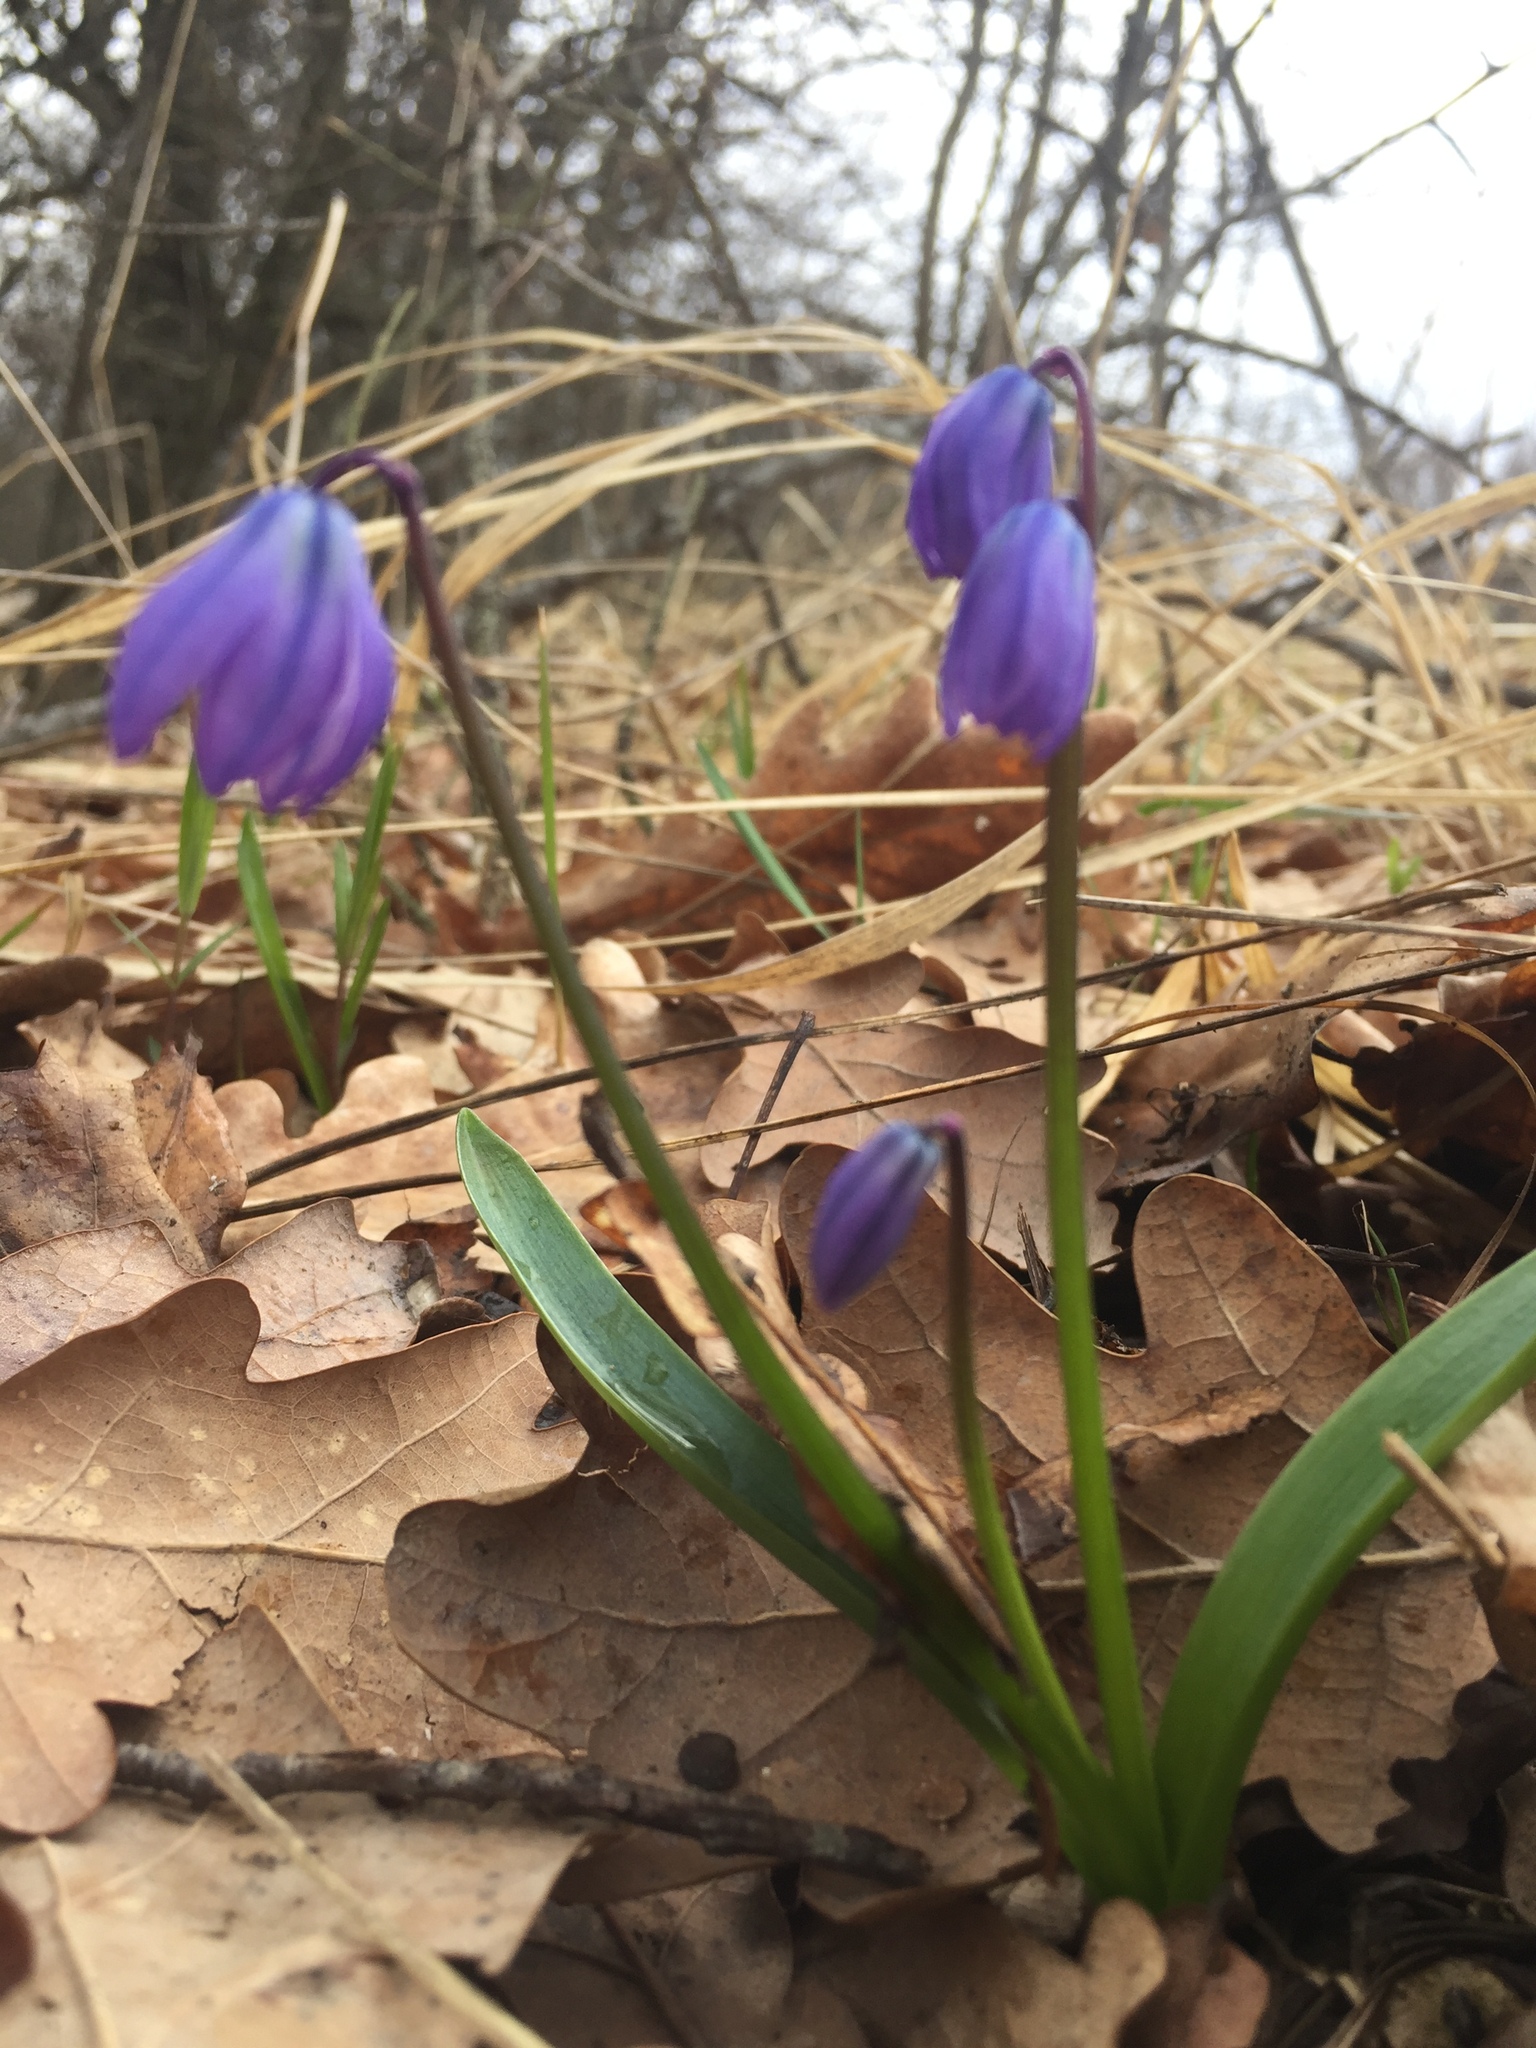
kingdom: Plantae
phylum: Tracheophyta
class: Liliopsida
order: Asparagales
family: Asparagaceae
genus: Scilla
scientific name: Scilla siberica
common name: Siberian squill
